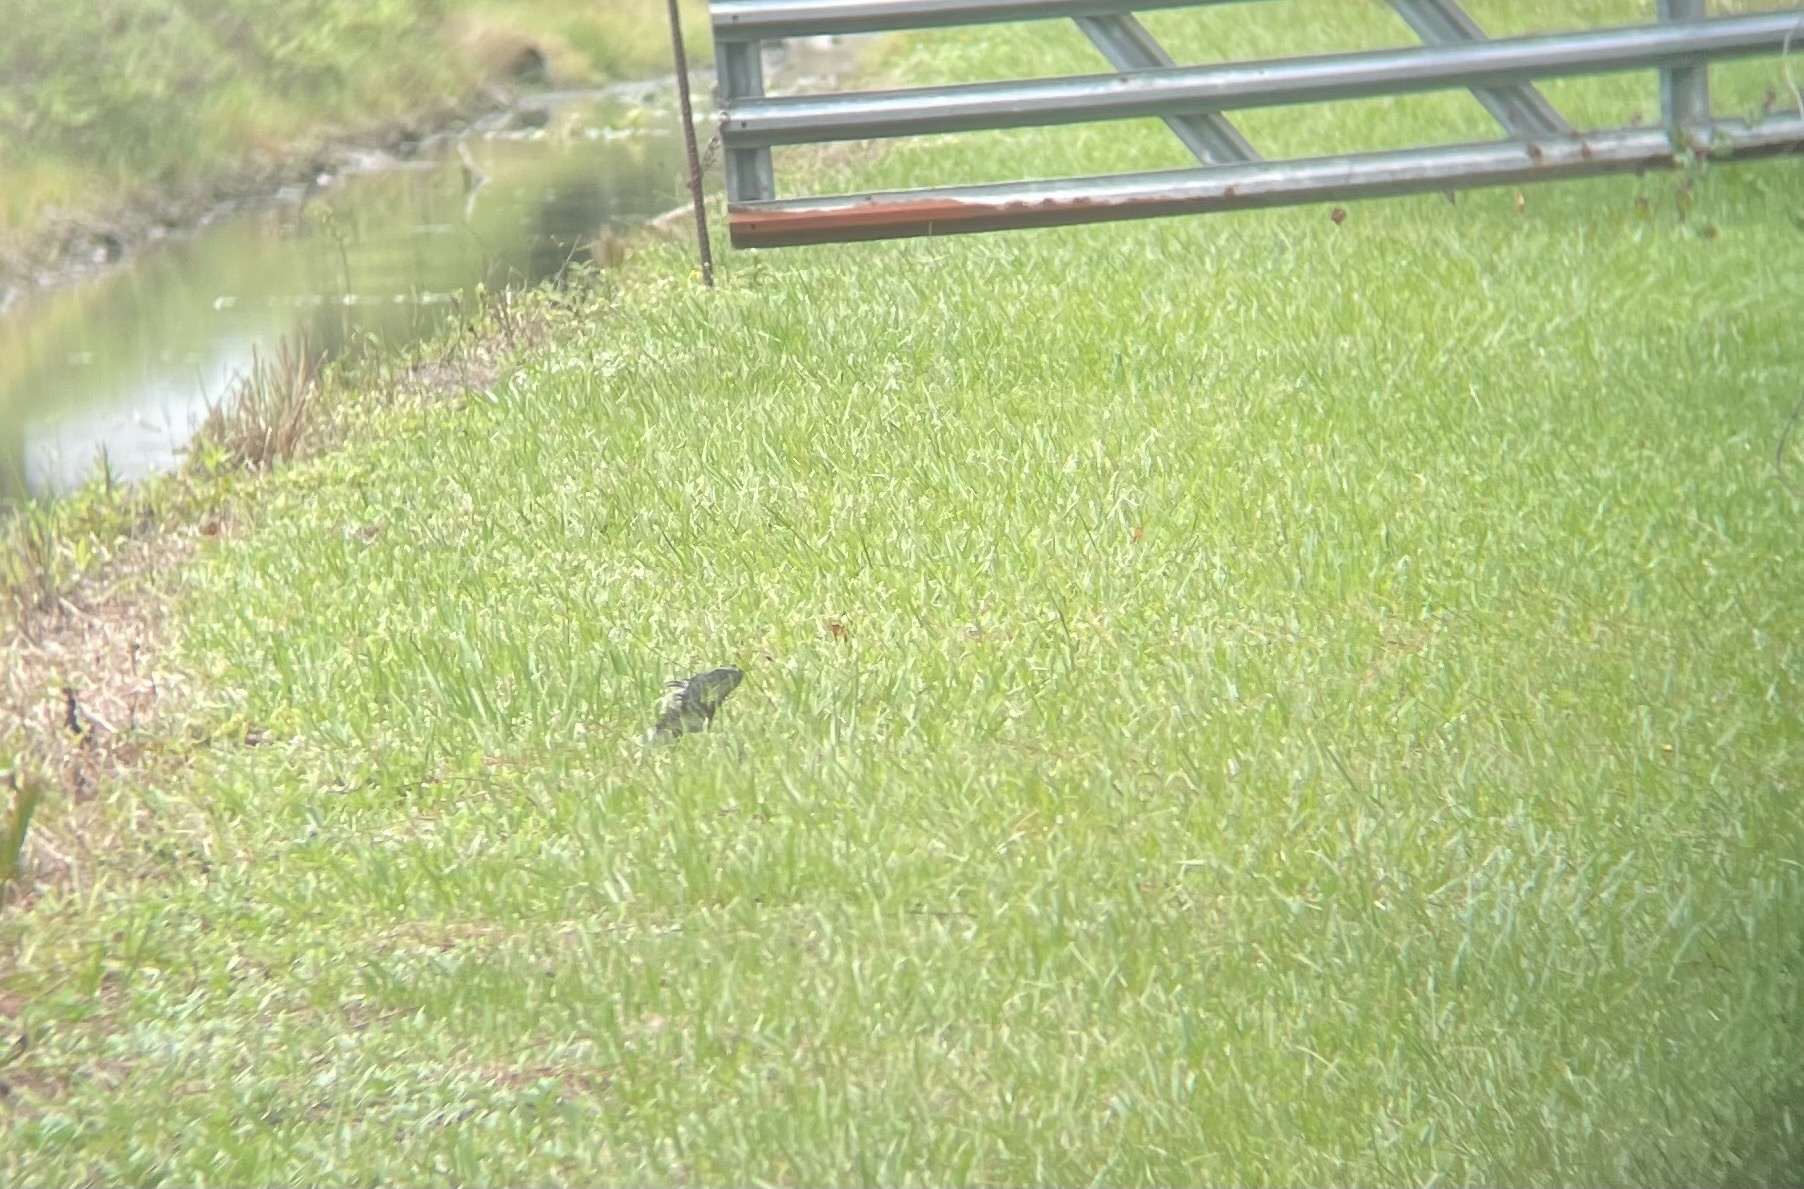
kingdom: Animalia
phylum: Chordata
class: Squamata
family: Iguanidae
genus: Iguana
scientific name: Iguana iguana
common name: Green iguana
